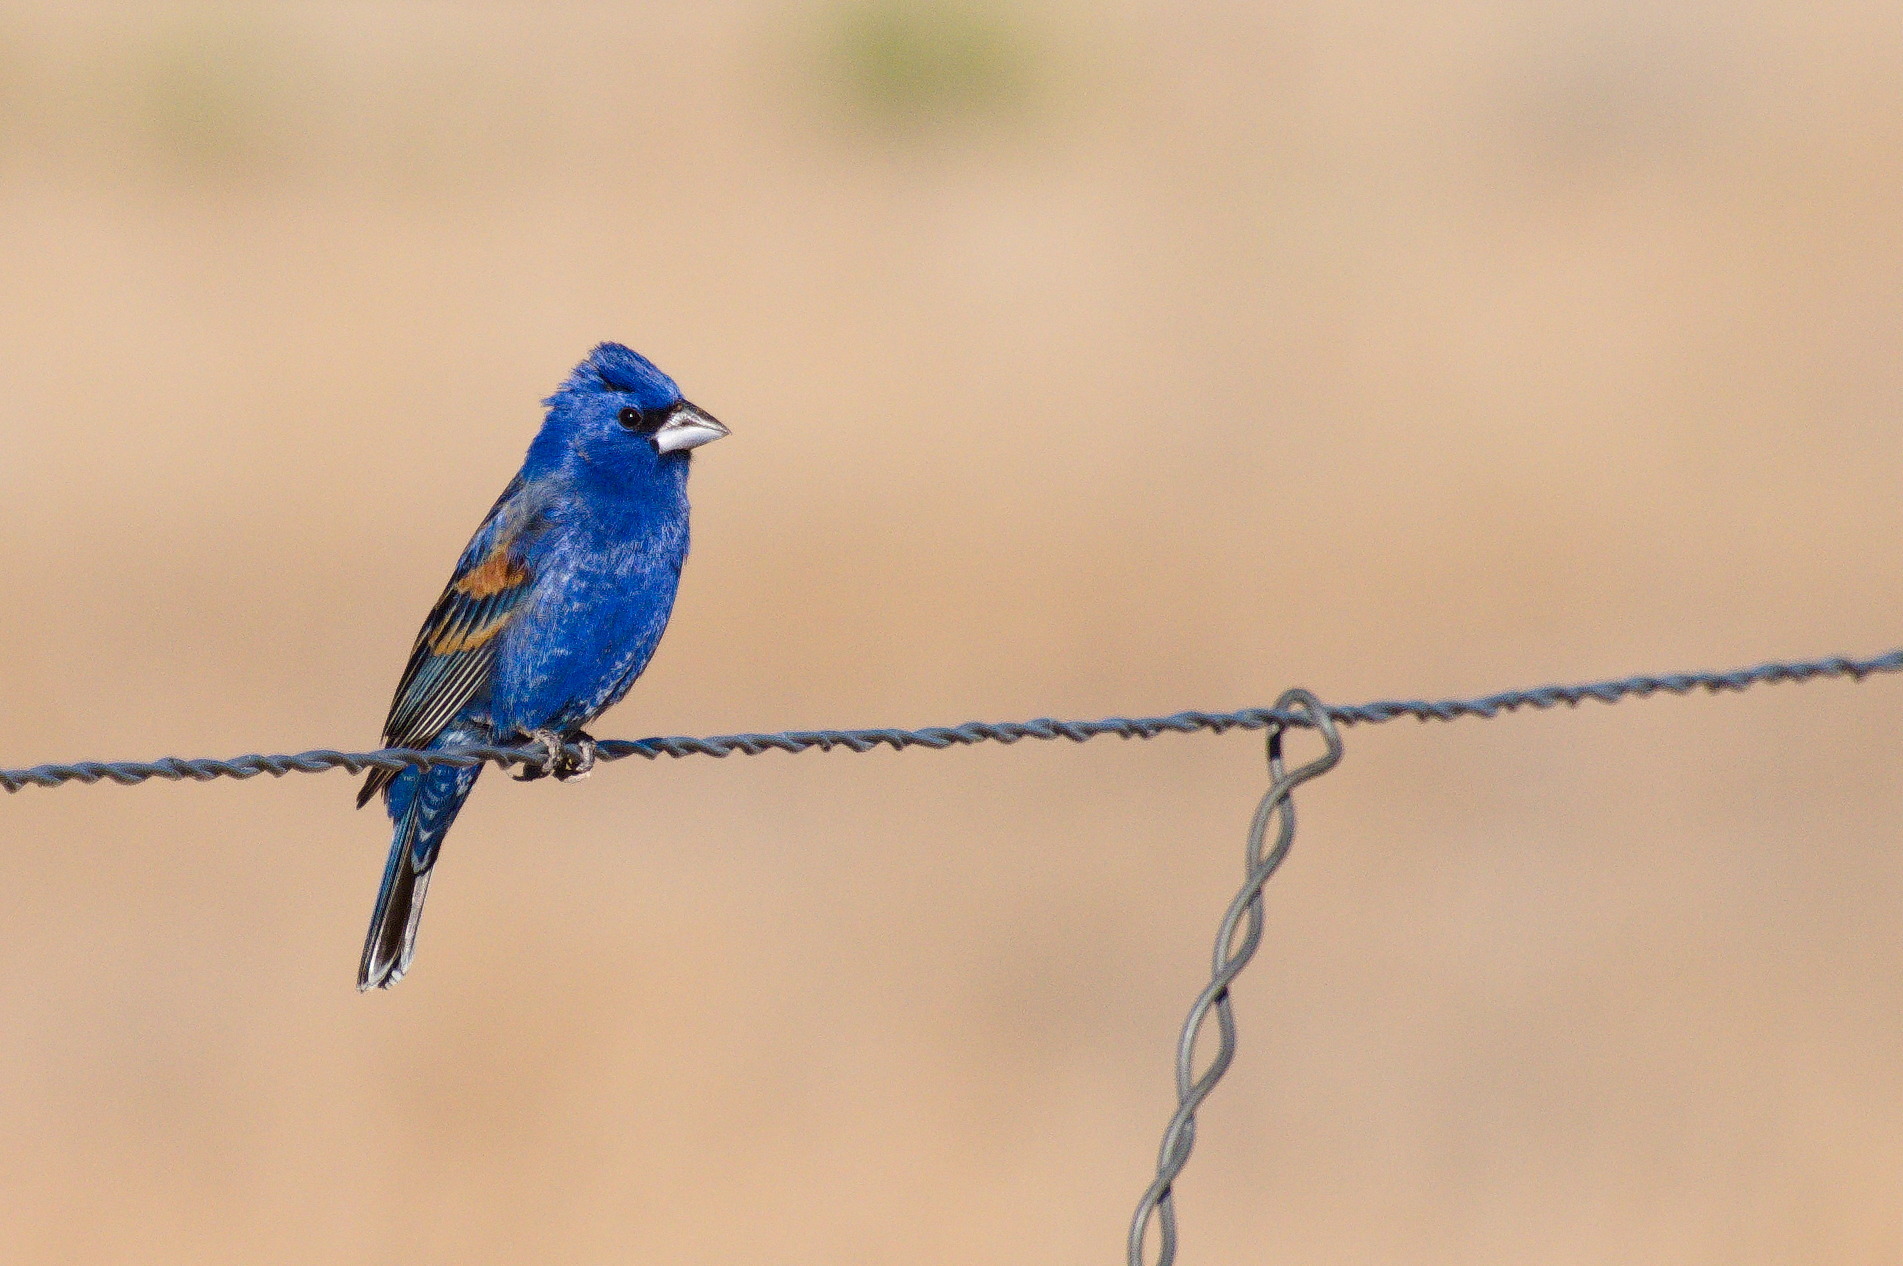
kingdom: Animalia
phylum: Chordata
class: Aves
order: Passeriformes
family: Cardinalidae
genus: Passerina
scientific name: Passerina caerulea
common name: Blue grosbeak
